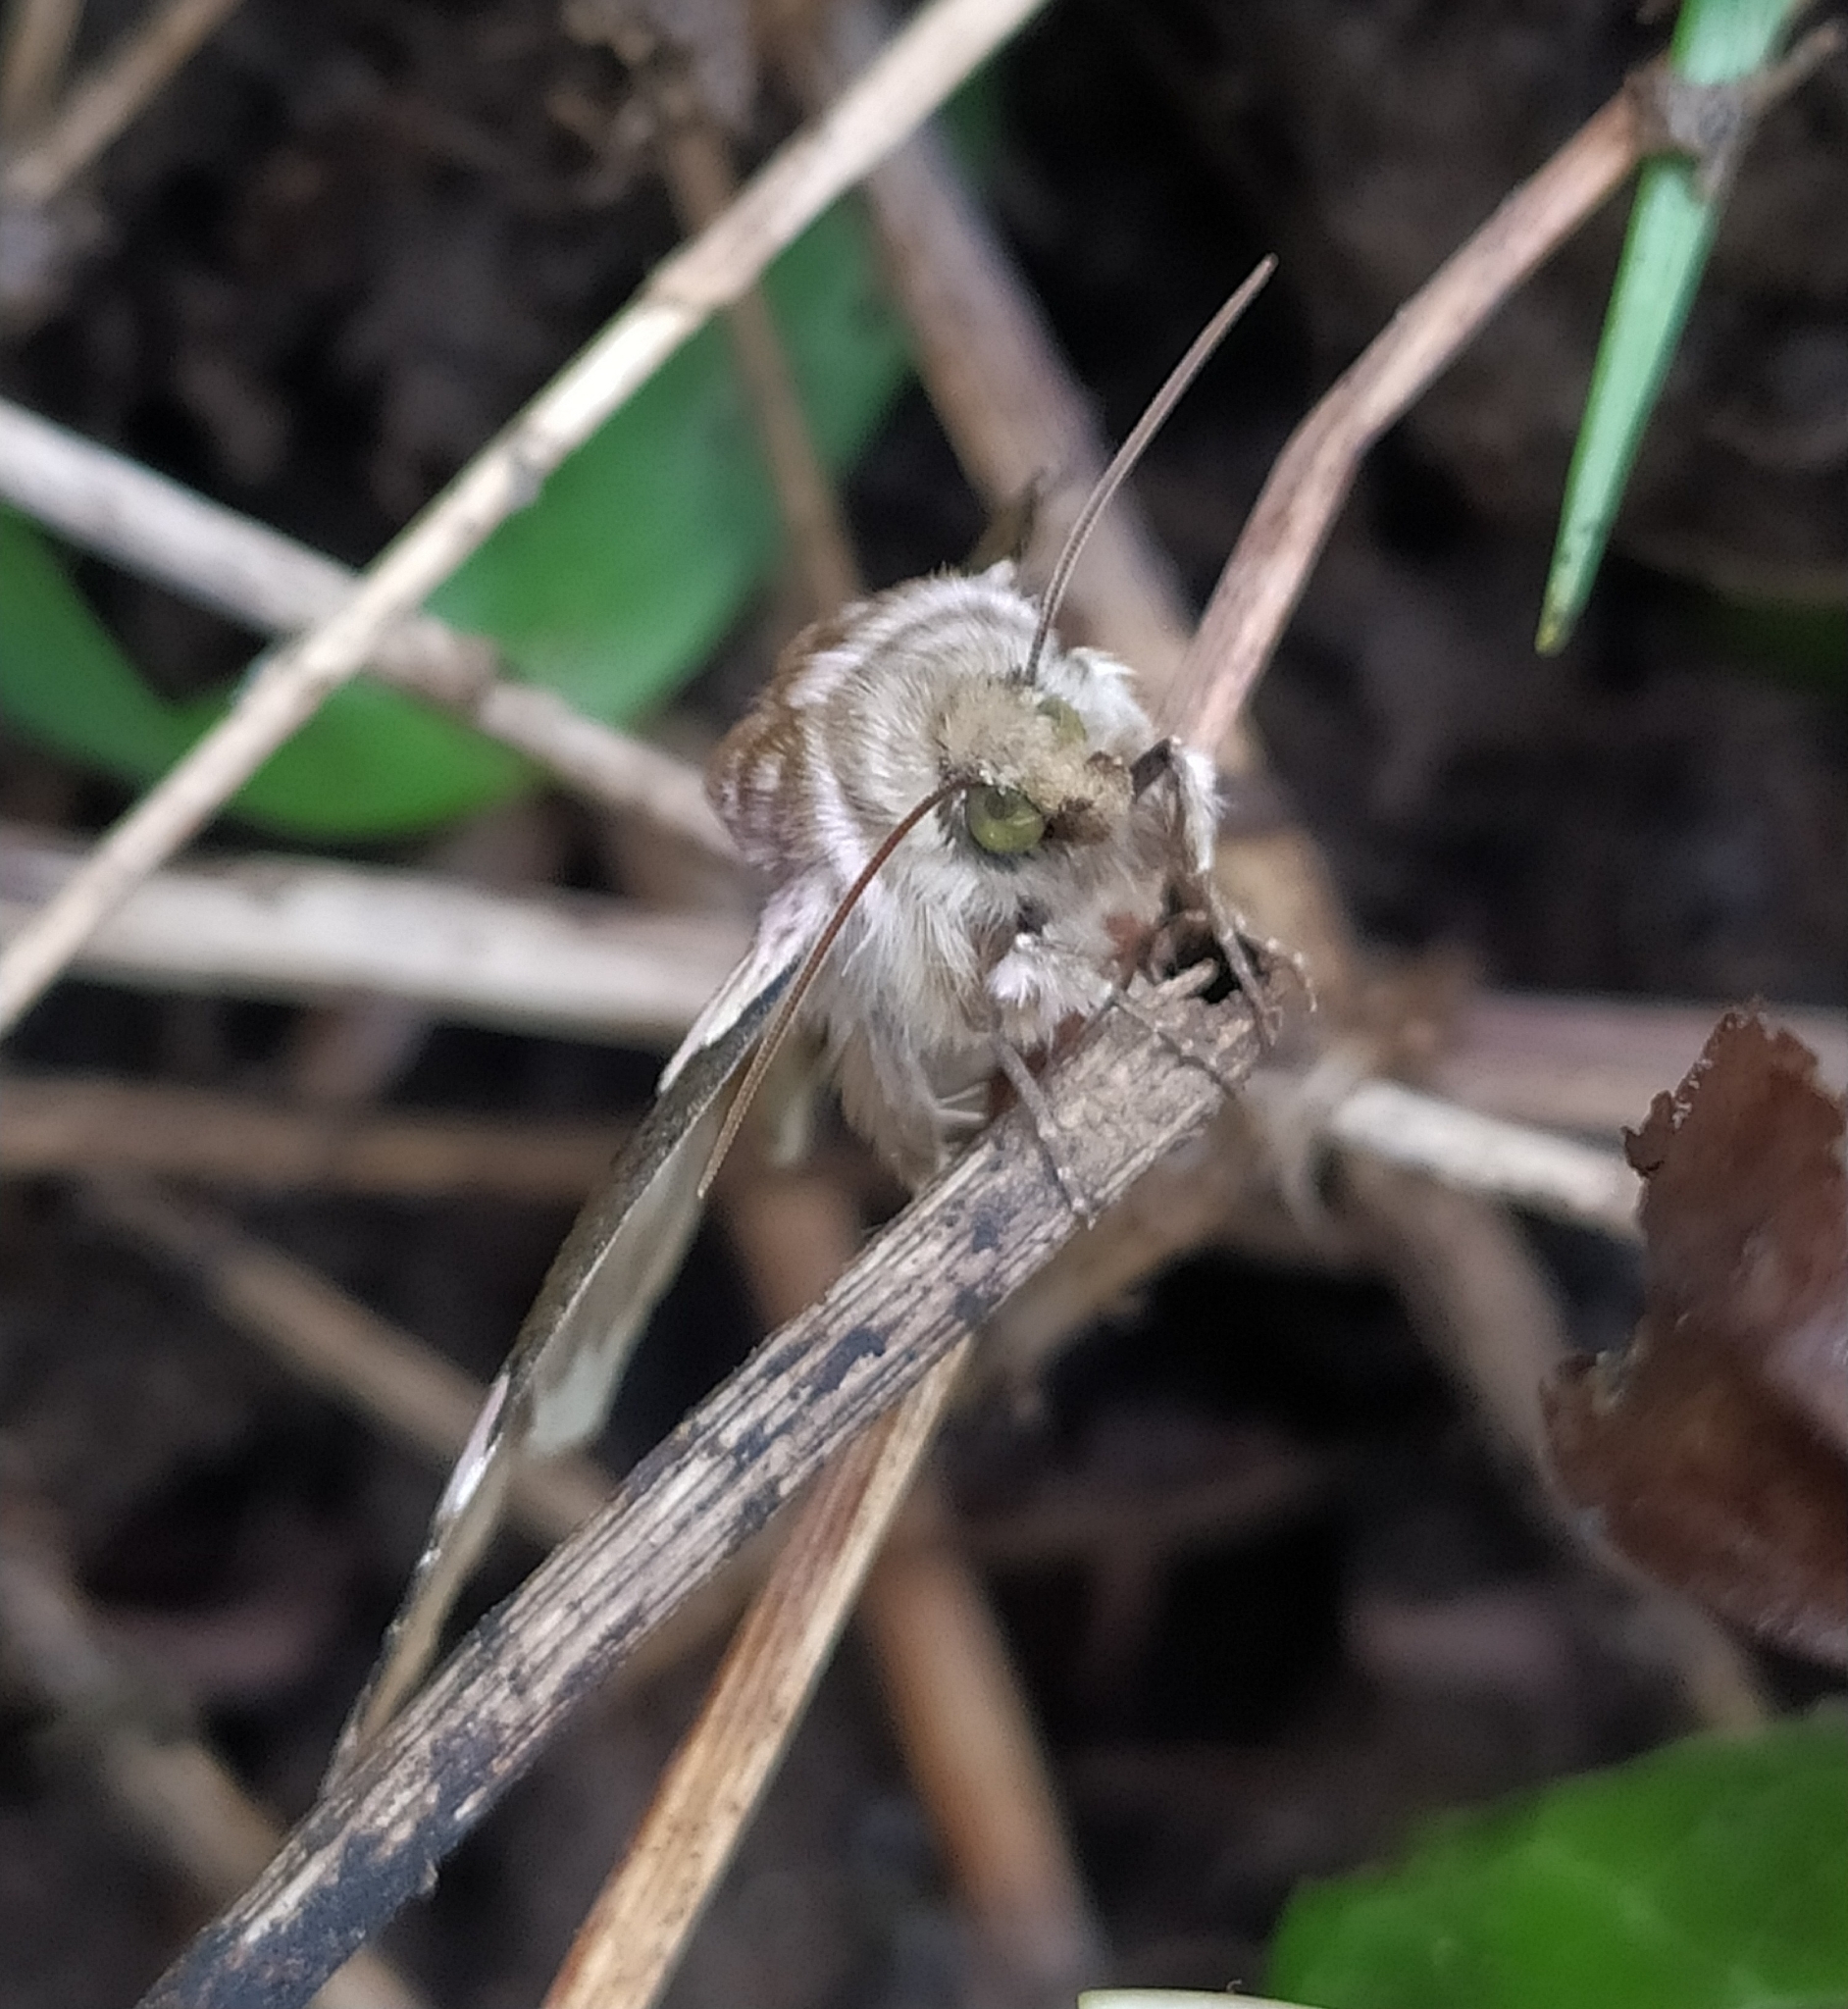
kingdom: Animalia
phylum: Arthropoda
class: Insecta
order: Lepidoptera
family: Drepanidae
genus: Thyatira
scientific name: Thyatira batis
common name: Peach blossom
